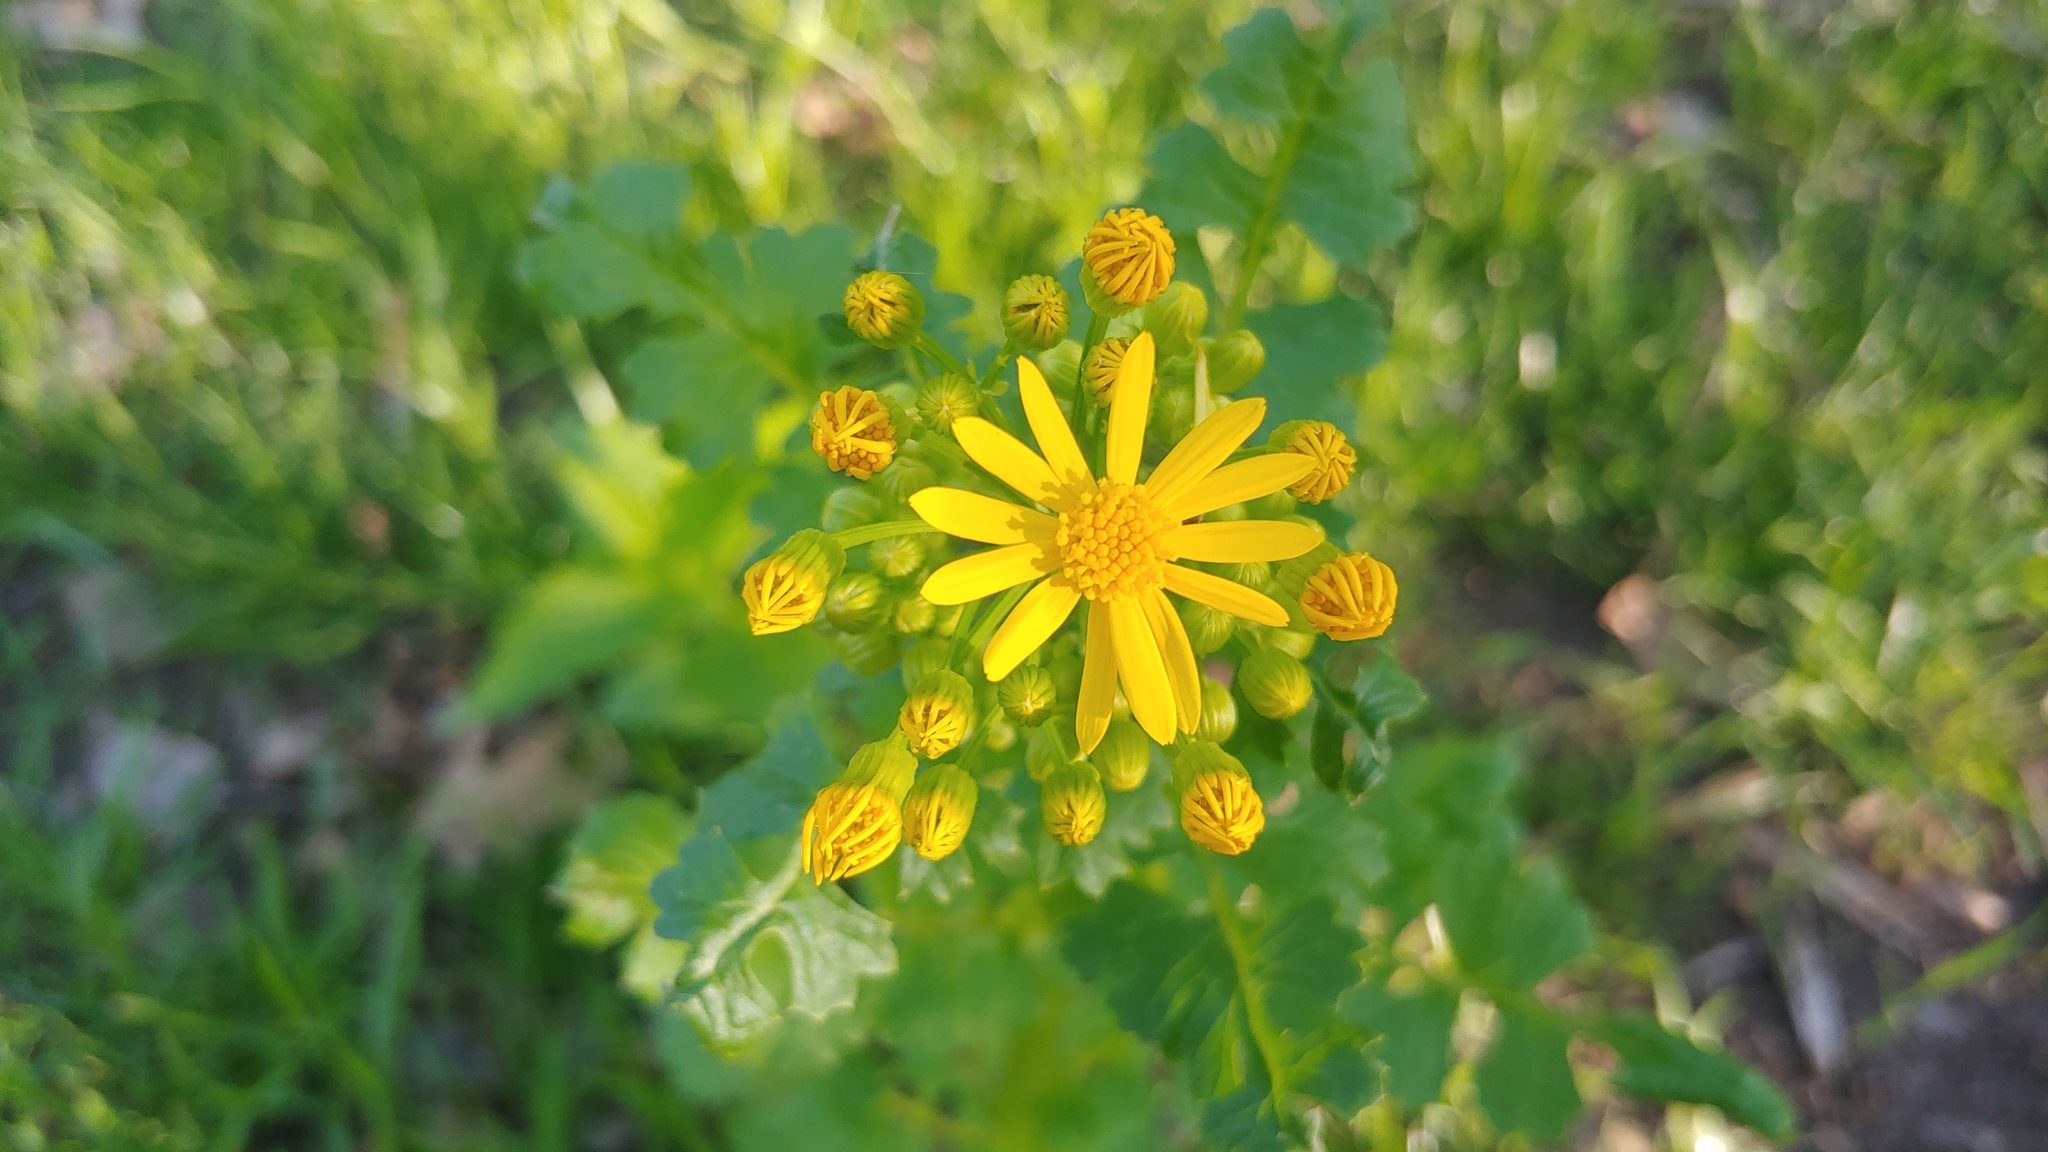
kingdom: Plantae
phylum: Tracheophyta
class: Magnoliopsida
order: Asterales
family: Asteraceae
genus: Packera
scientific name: Packera glabella
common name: Butterweed
